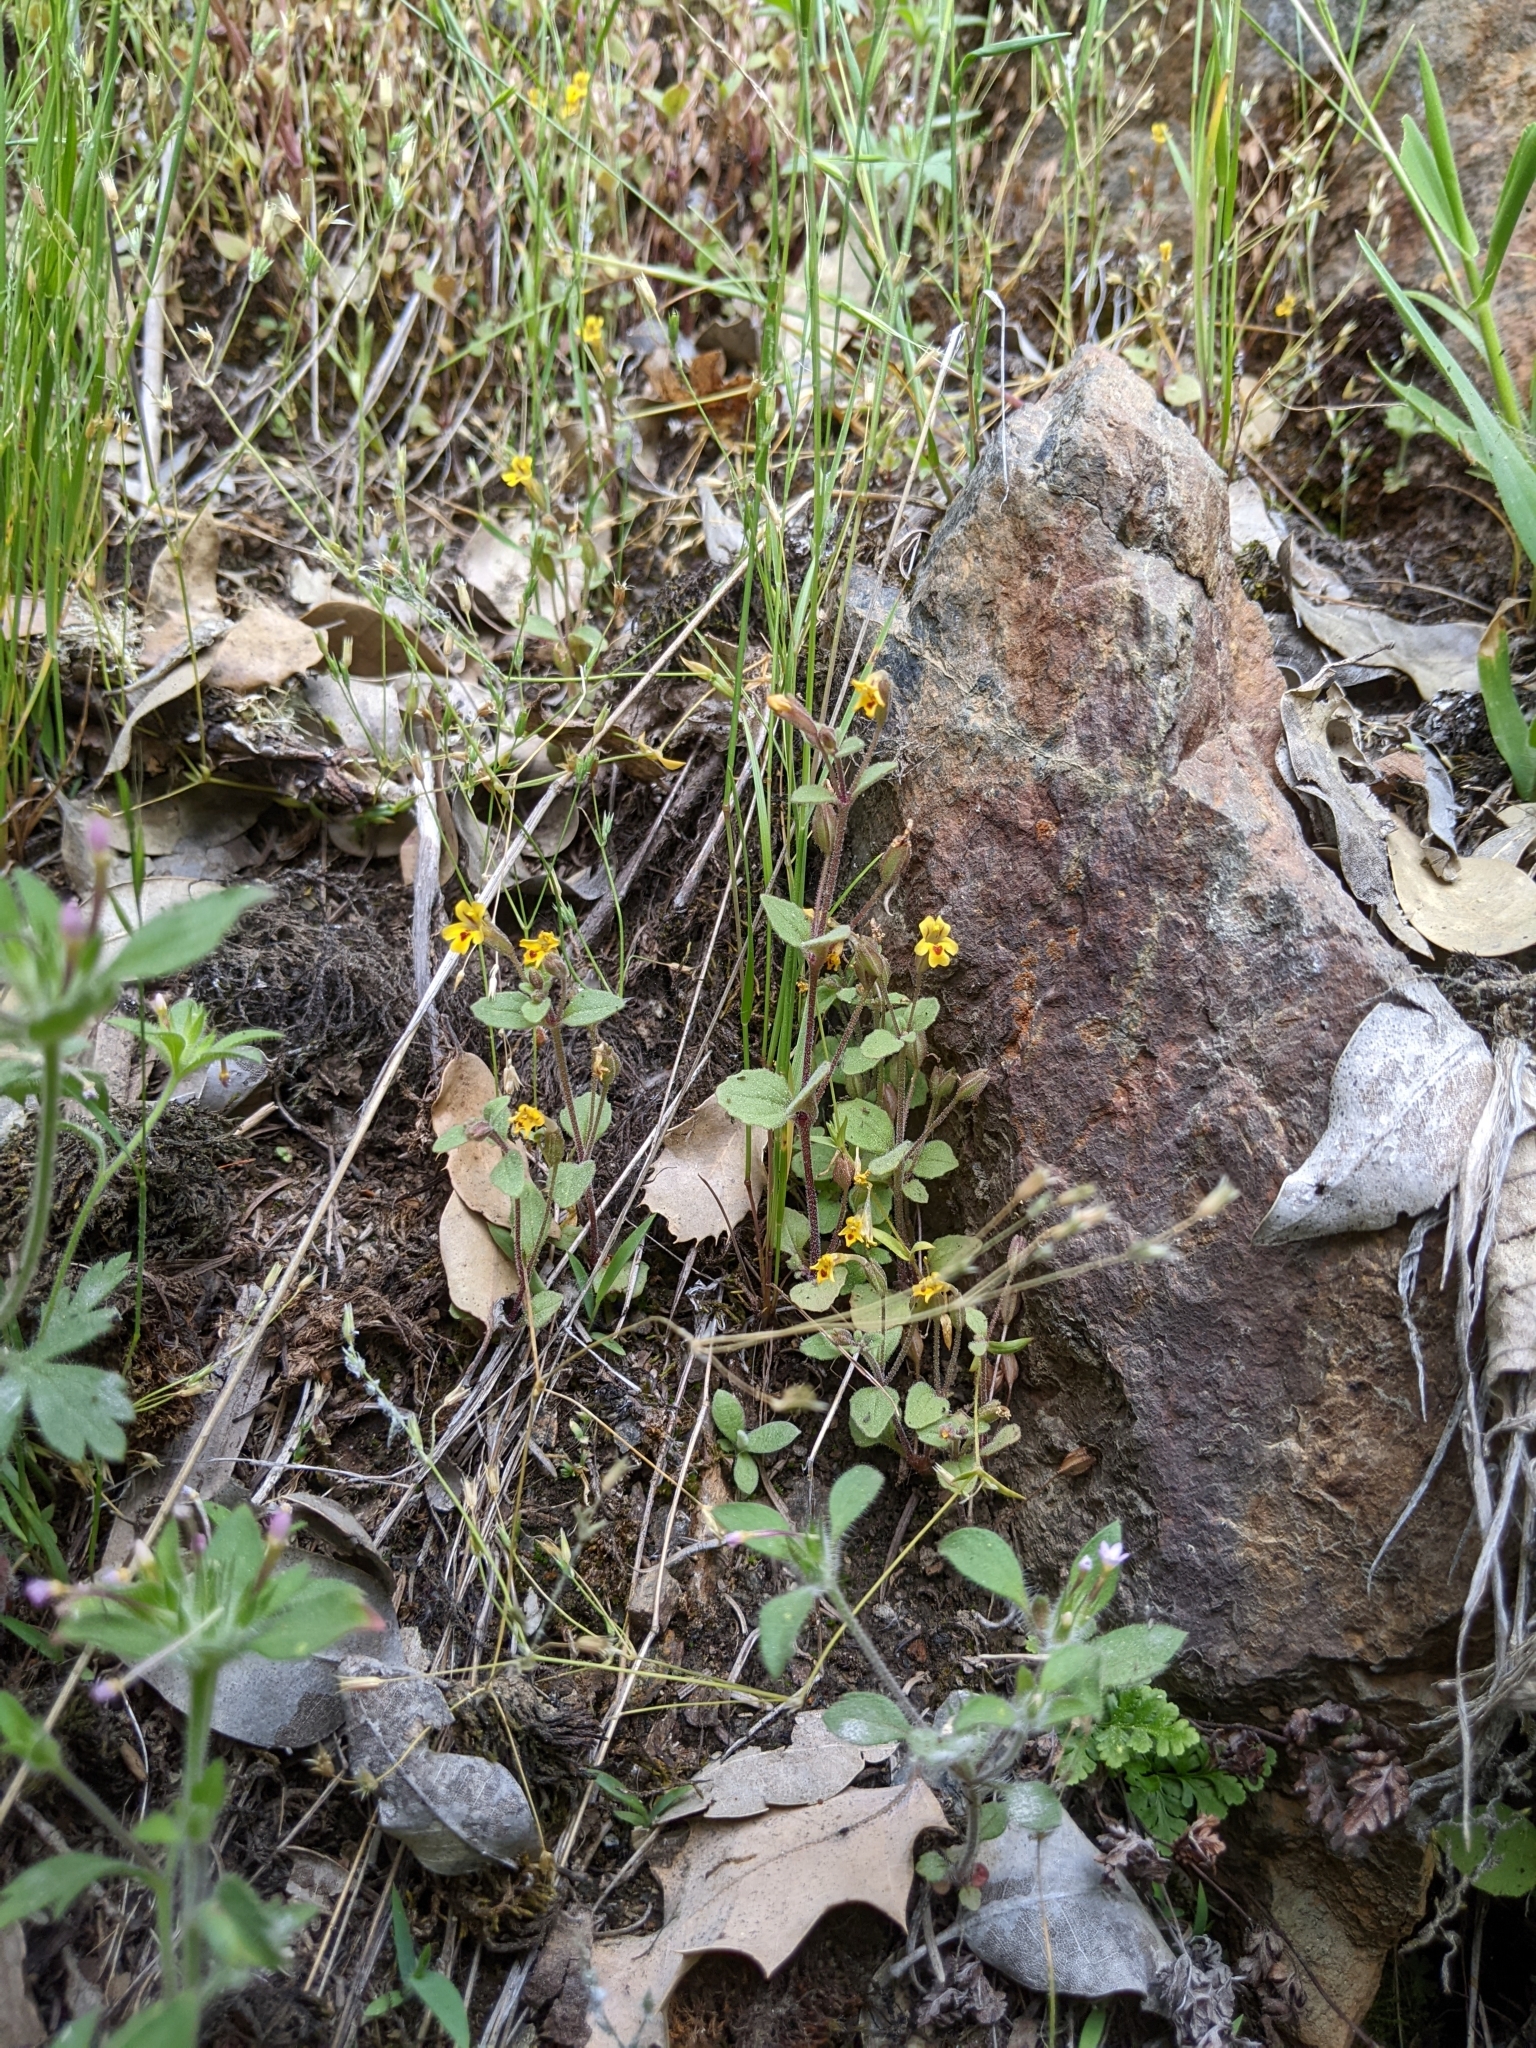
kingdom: Plantae
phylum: Tracheophyta
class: Magnoliopsida
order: Lamiales
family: Phrymaceae
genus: Erythranthe
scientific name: Erythranthe alsinoides
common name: Chickweed monkeyflower
